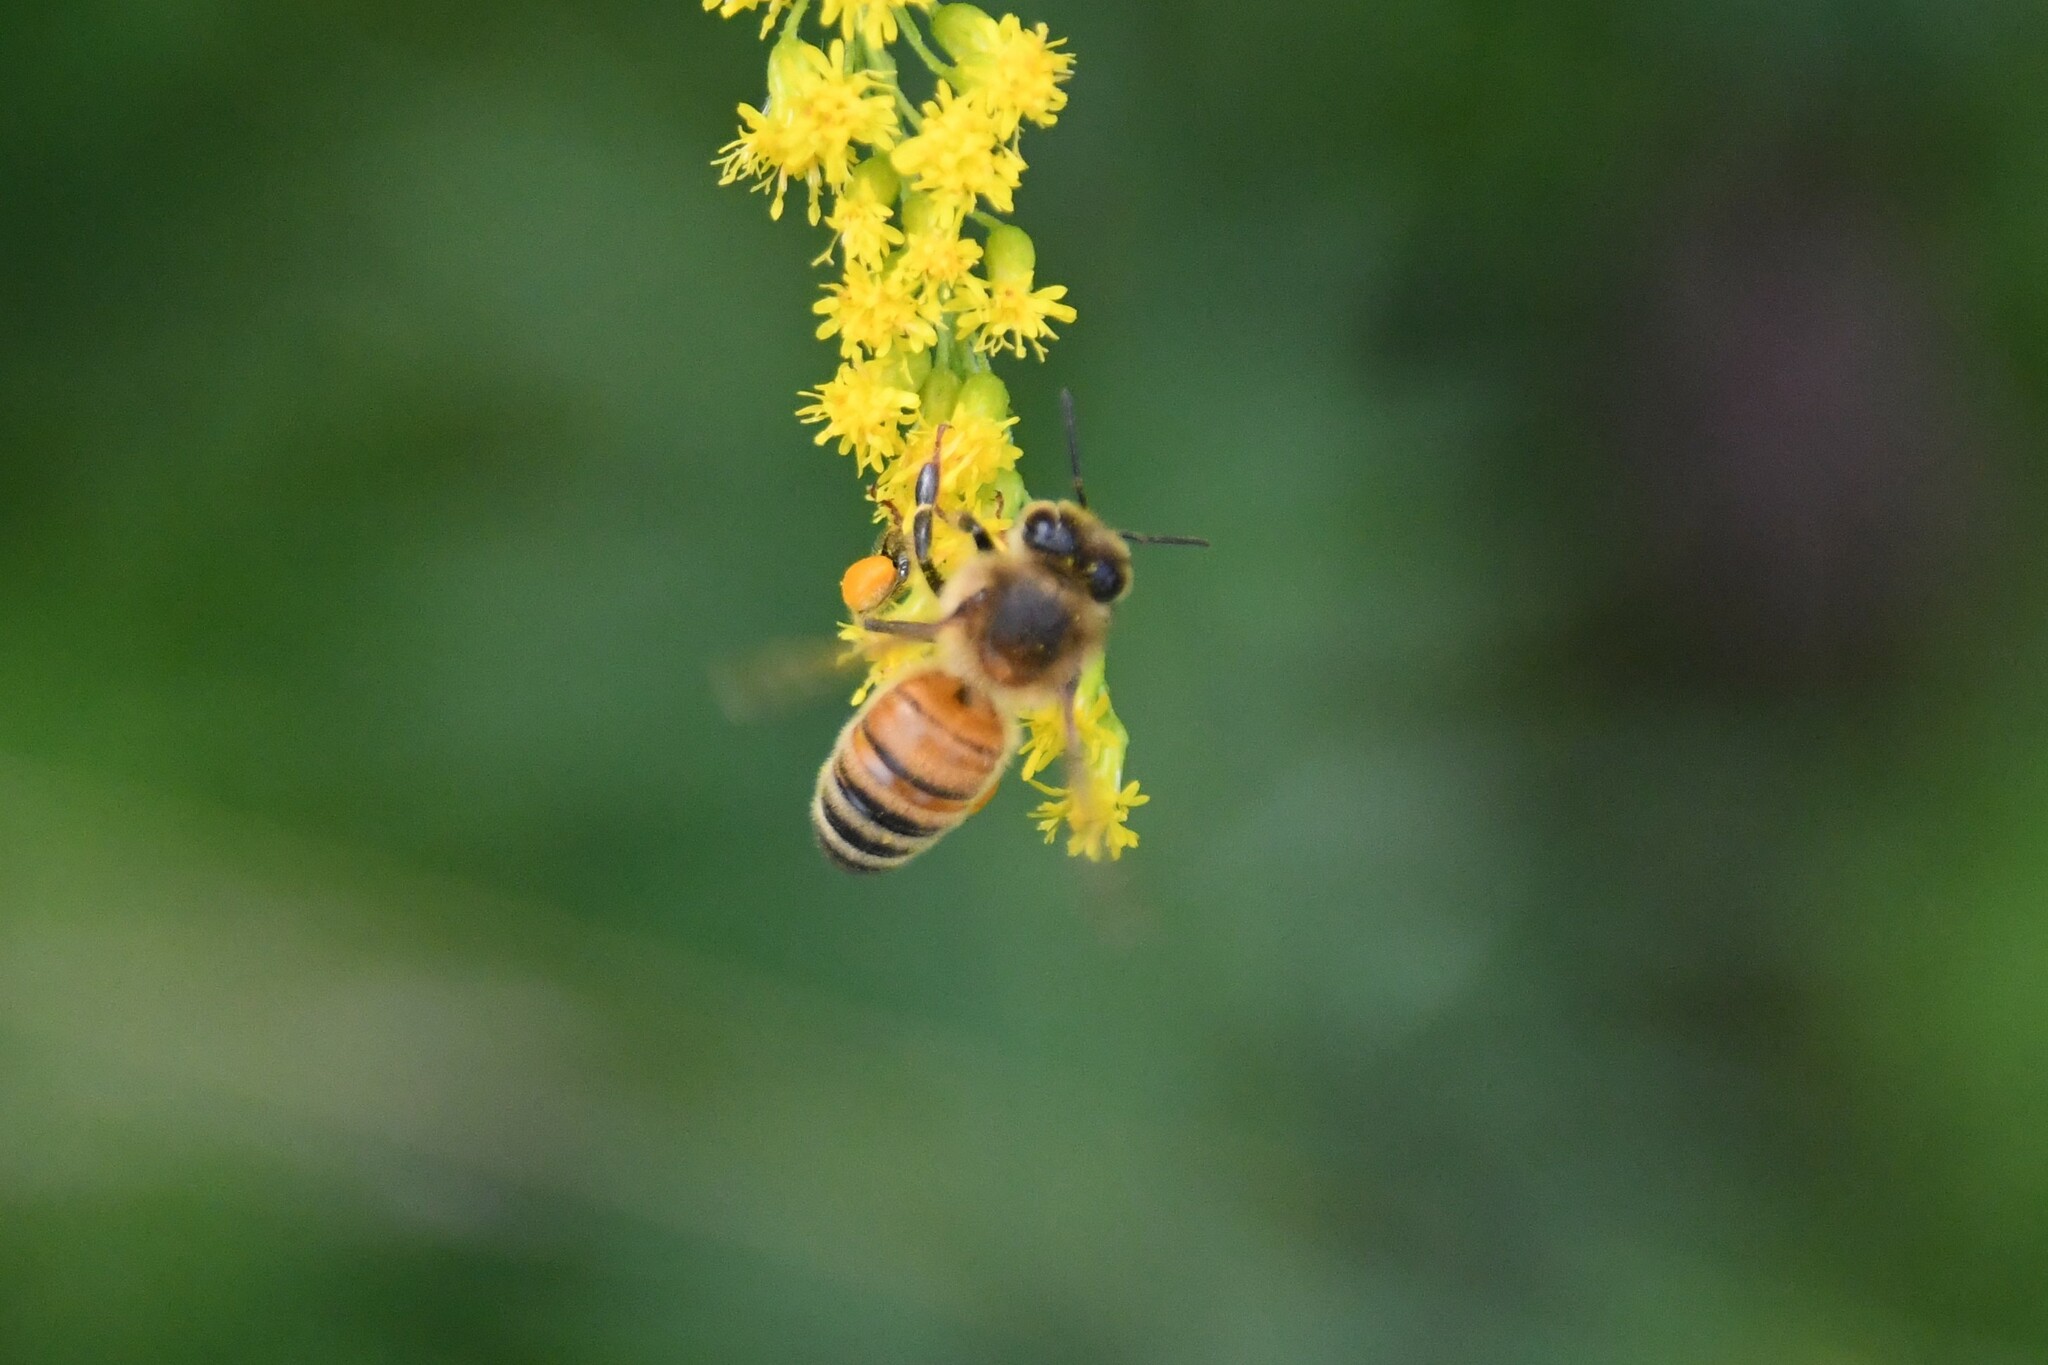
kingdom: Animalia
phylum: Arthropoda
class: Insecta
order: Hymenoptera
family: Apidae
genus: Apis
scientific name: Apis mellifera
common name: Honey bee
